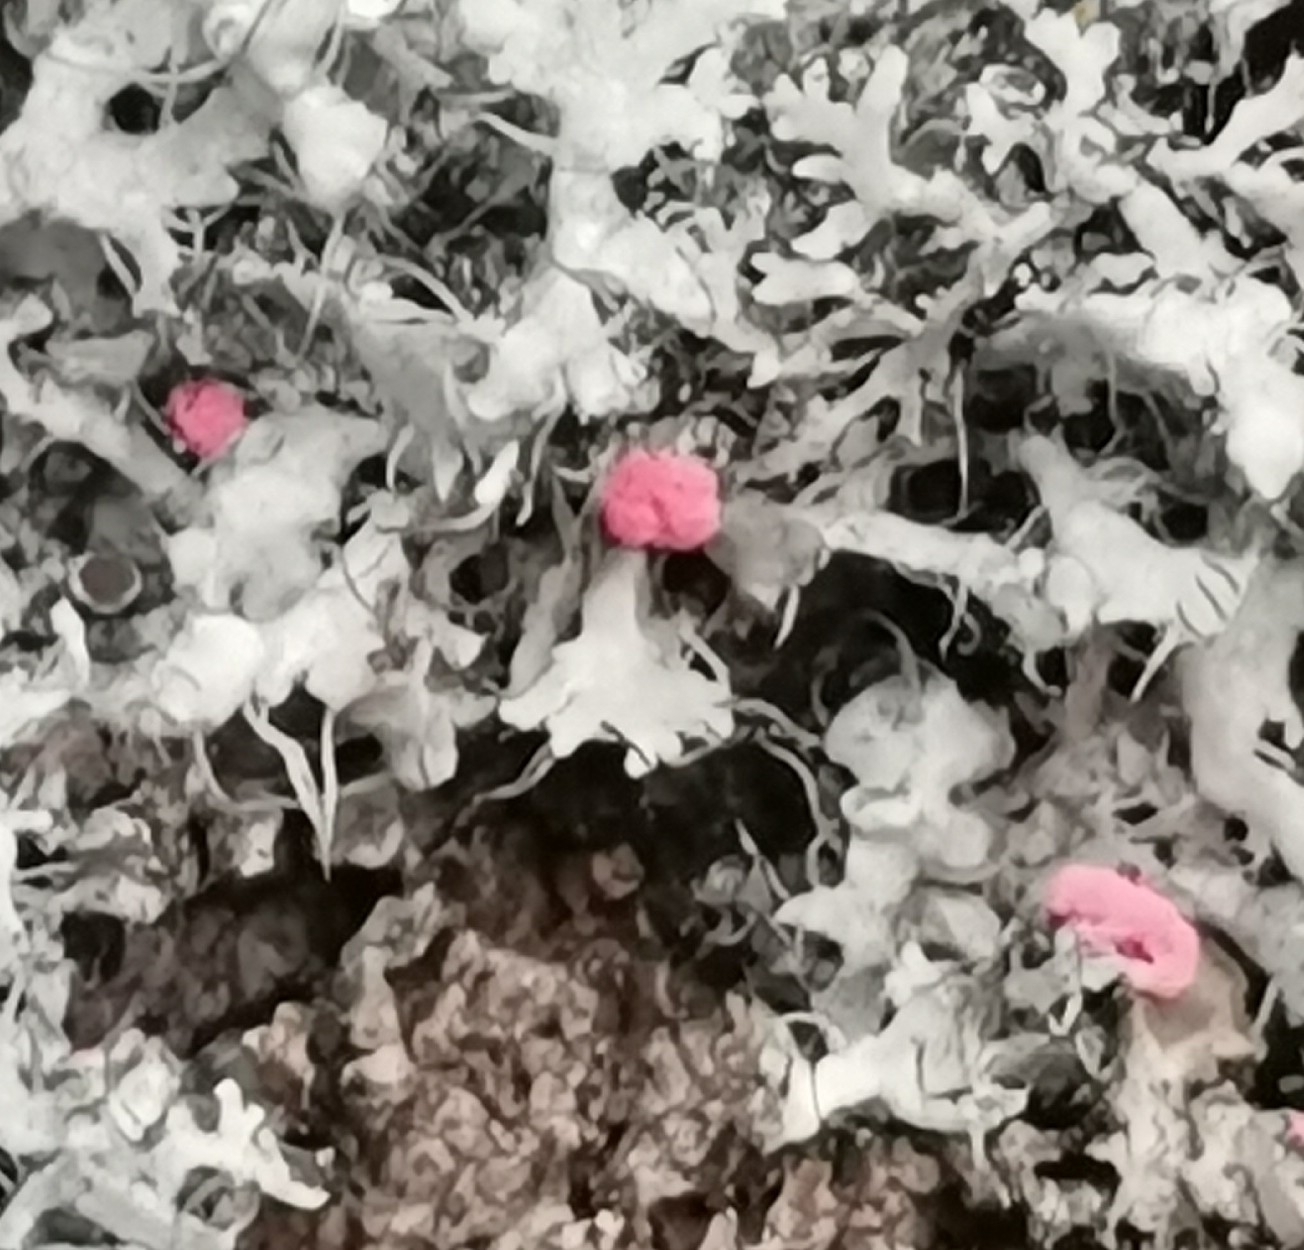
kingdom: Fungi
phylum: Ascomycota
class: Sordariomycetes
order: Hypocreales
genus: Illosporiopsis
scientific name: Illosporiopsis christiansenii
